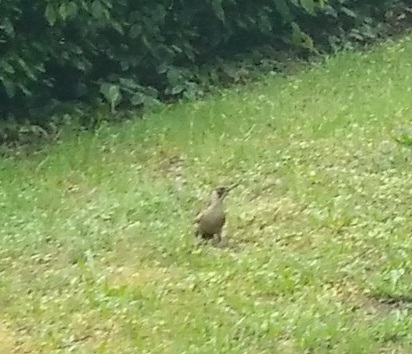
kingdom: Animalia
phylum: Chordata
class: Aves
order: Piciformes
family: Picidae
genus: Picus
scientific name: Picus viridis
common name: European green woodpecker
